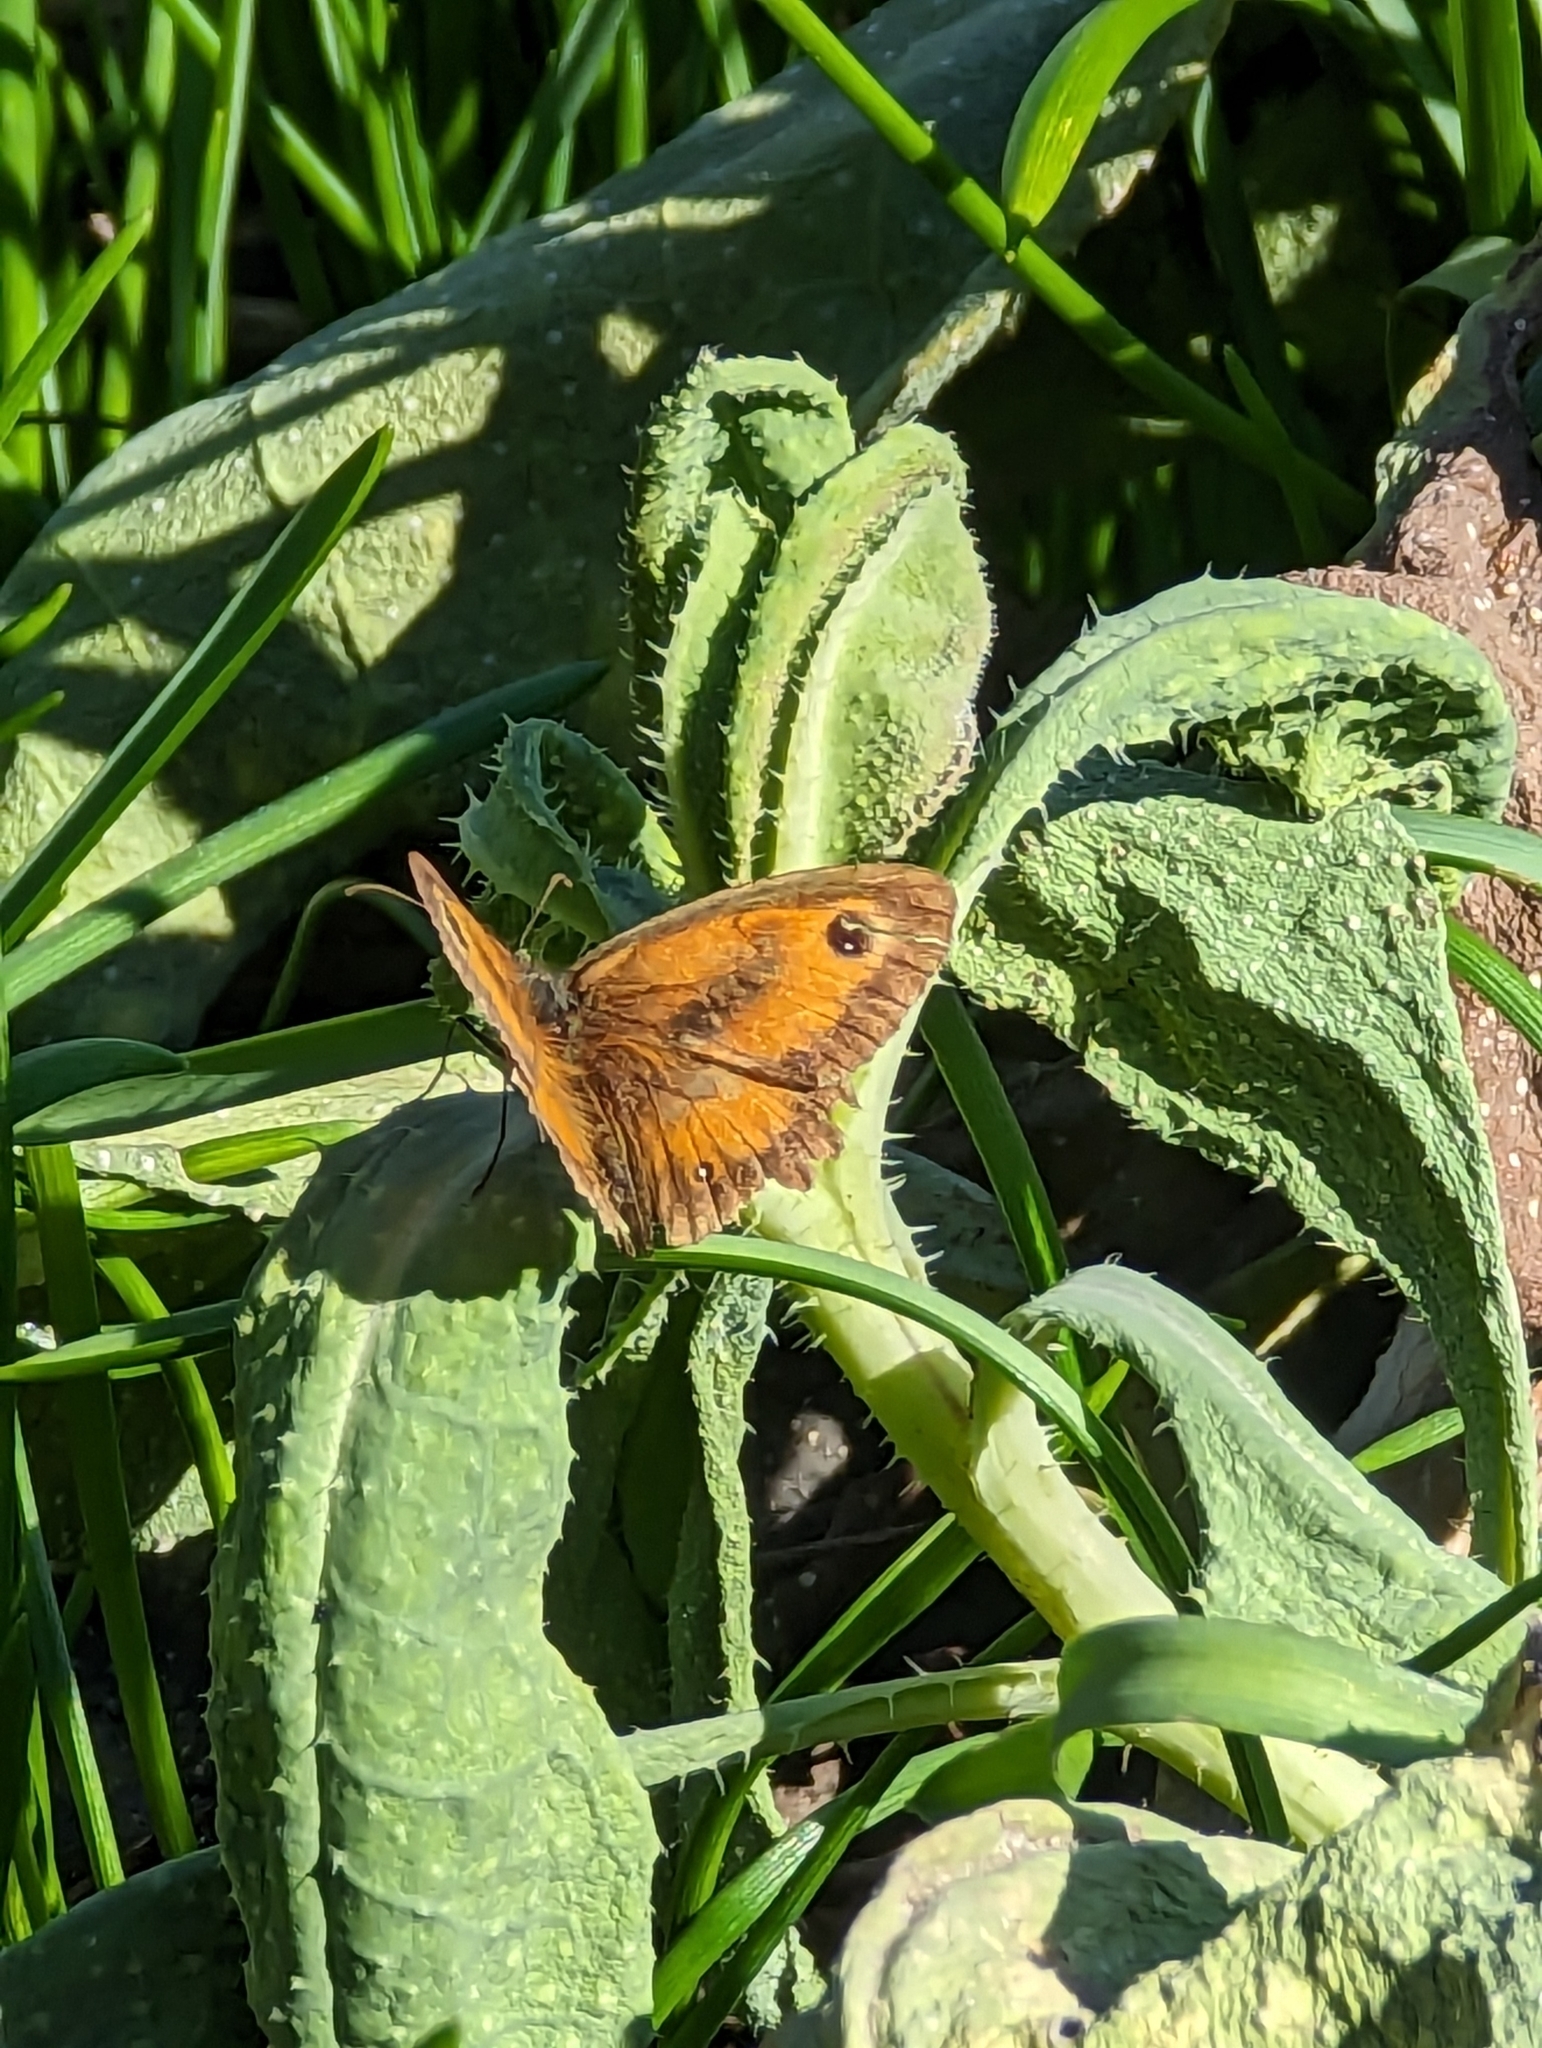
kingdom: Animalia
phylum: Arthropoda
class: Insecta
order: Lepidoptera
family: Nymphalidae
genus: Pyronia
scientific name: Pyronia tithonus
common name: Gatekeeper
